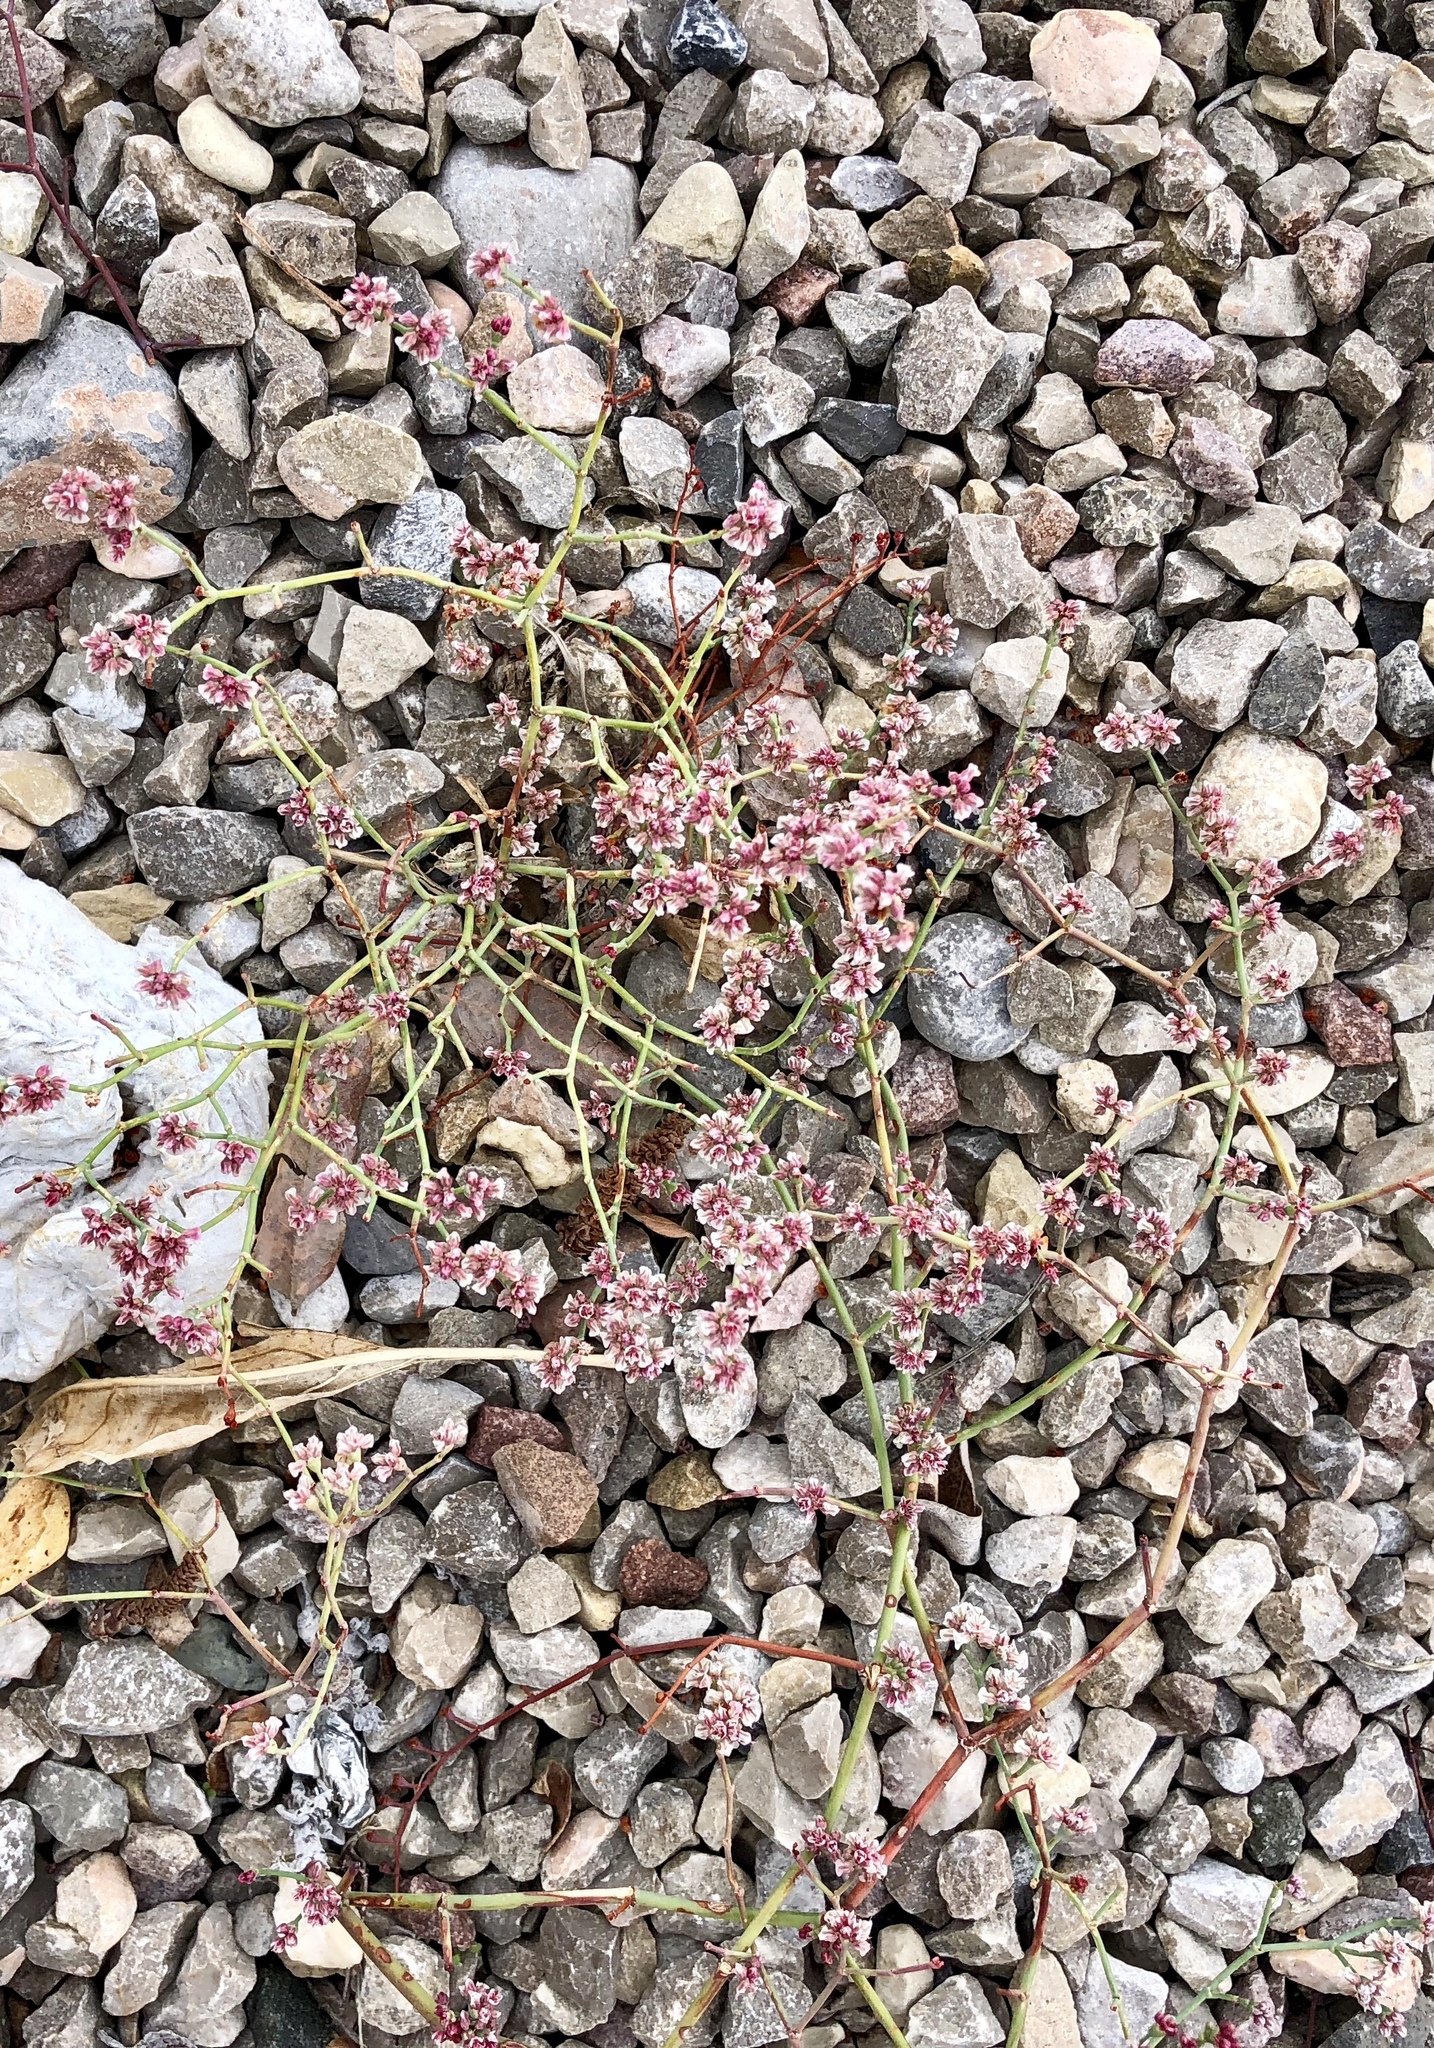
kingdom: Plantae
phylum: Tracheophyta
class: Magnoliopsida
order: Caryophyllales
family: Polygonaceae
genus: Eriogonum
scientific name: Eriogonum rotundifolium
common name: Round-leaf wild buckwheat
